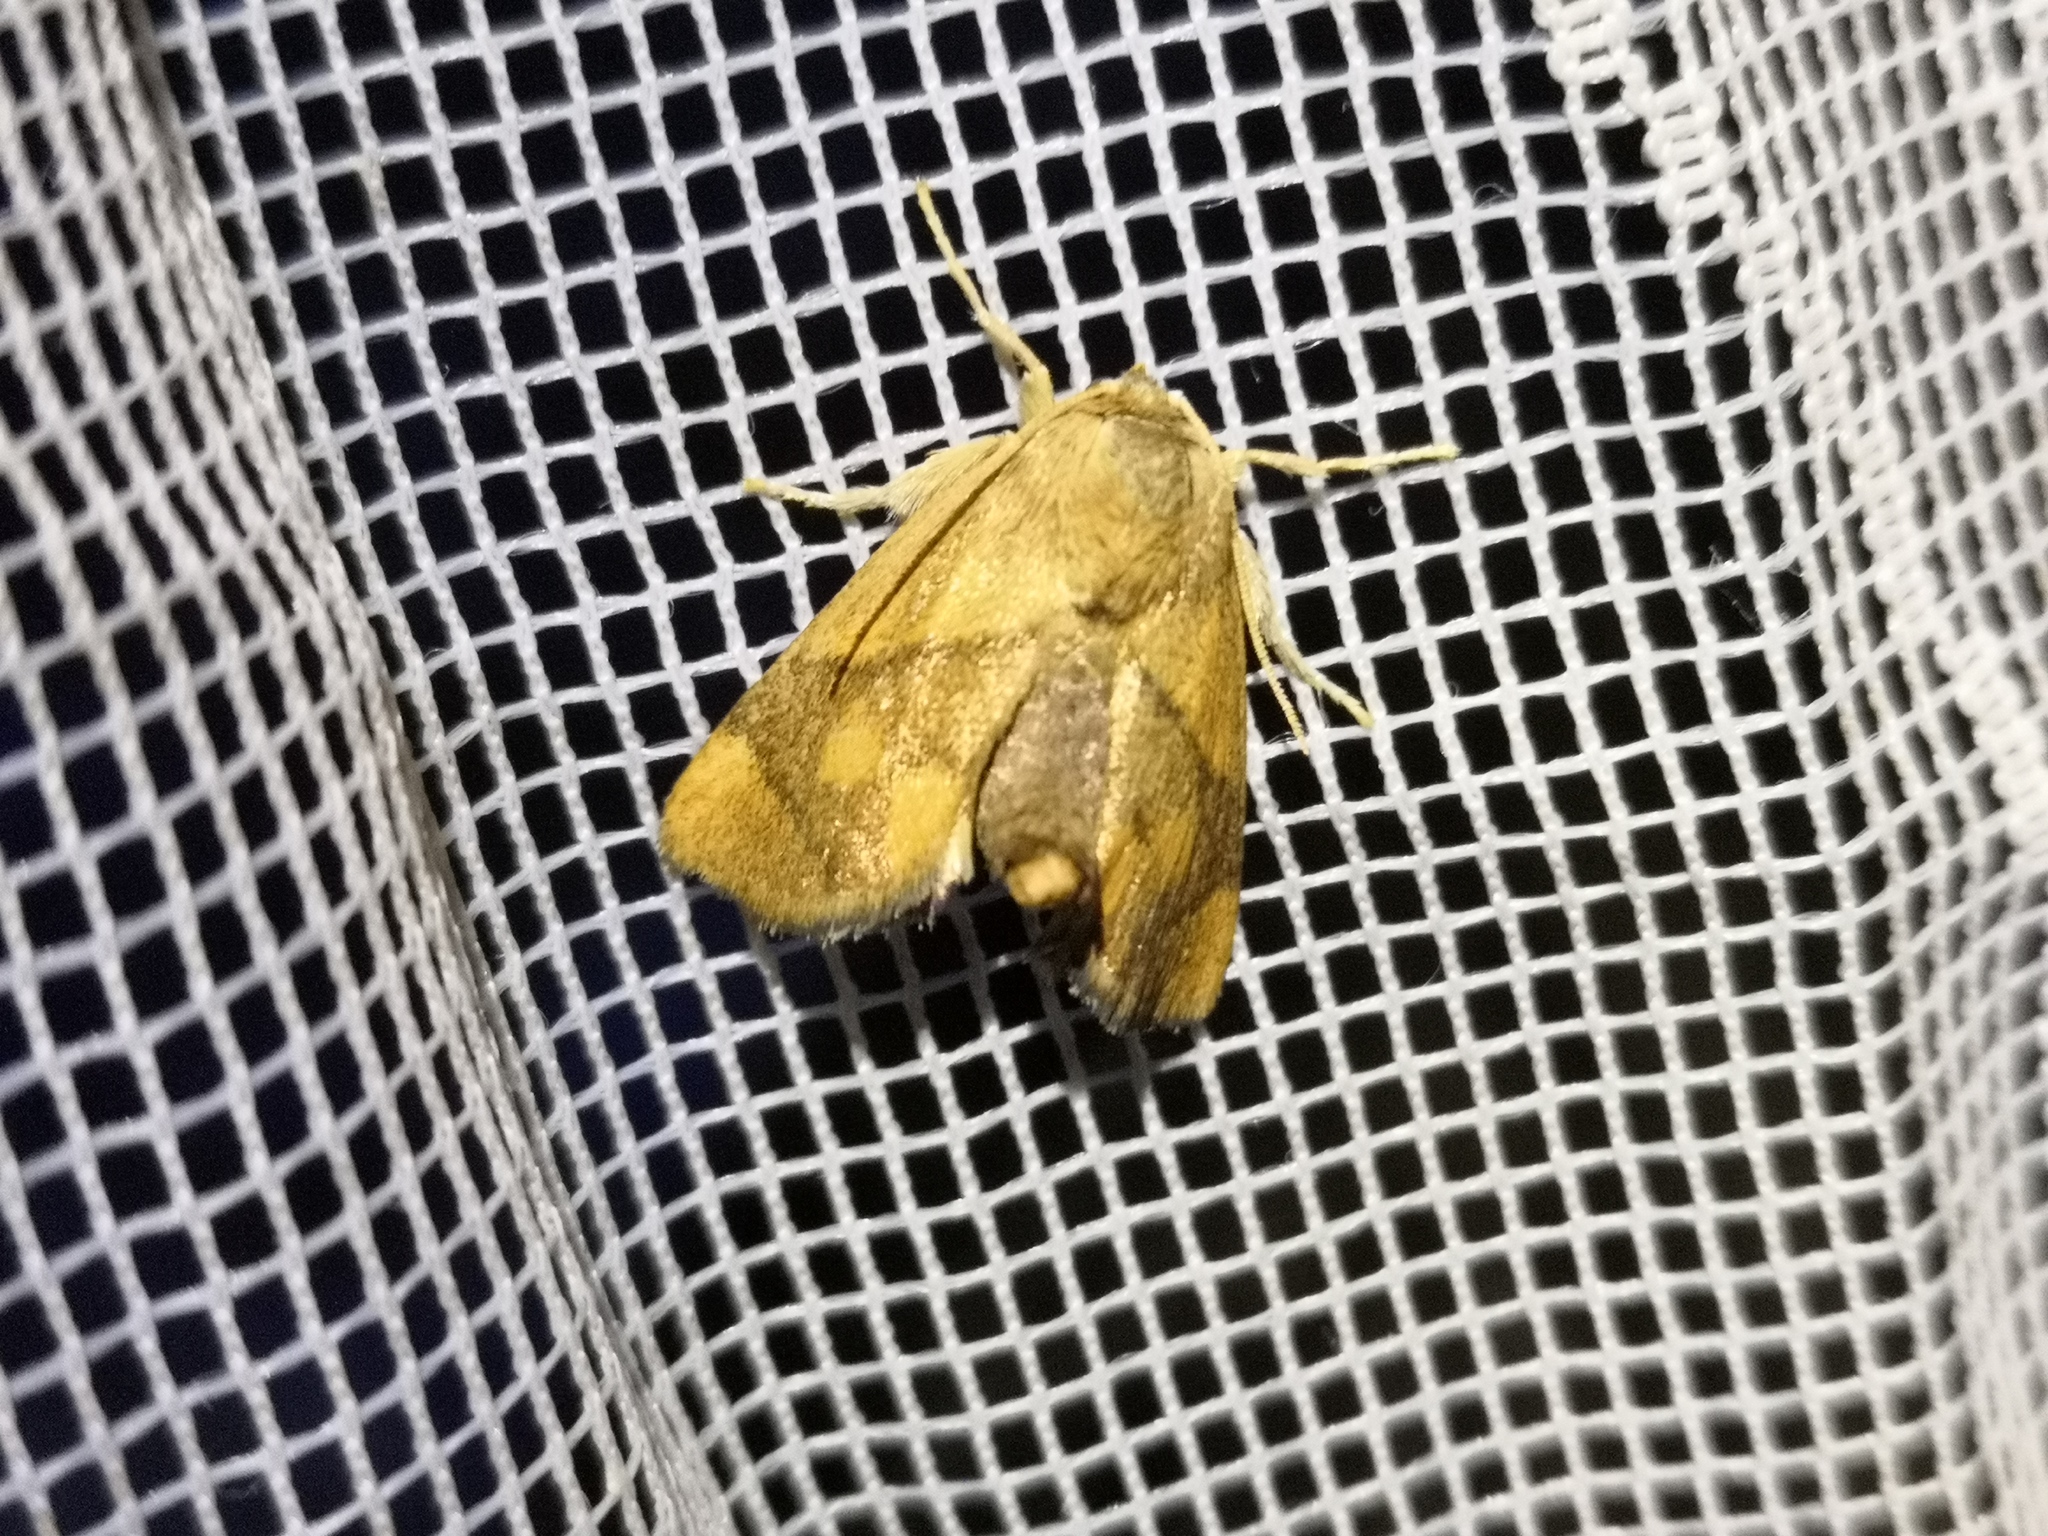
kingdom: Animalia
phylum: Arthropoda
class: Insecta
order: Lepidoptera
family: Limacodidae
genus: Apoda
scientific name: Apoda limacodes
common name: Festoon
